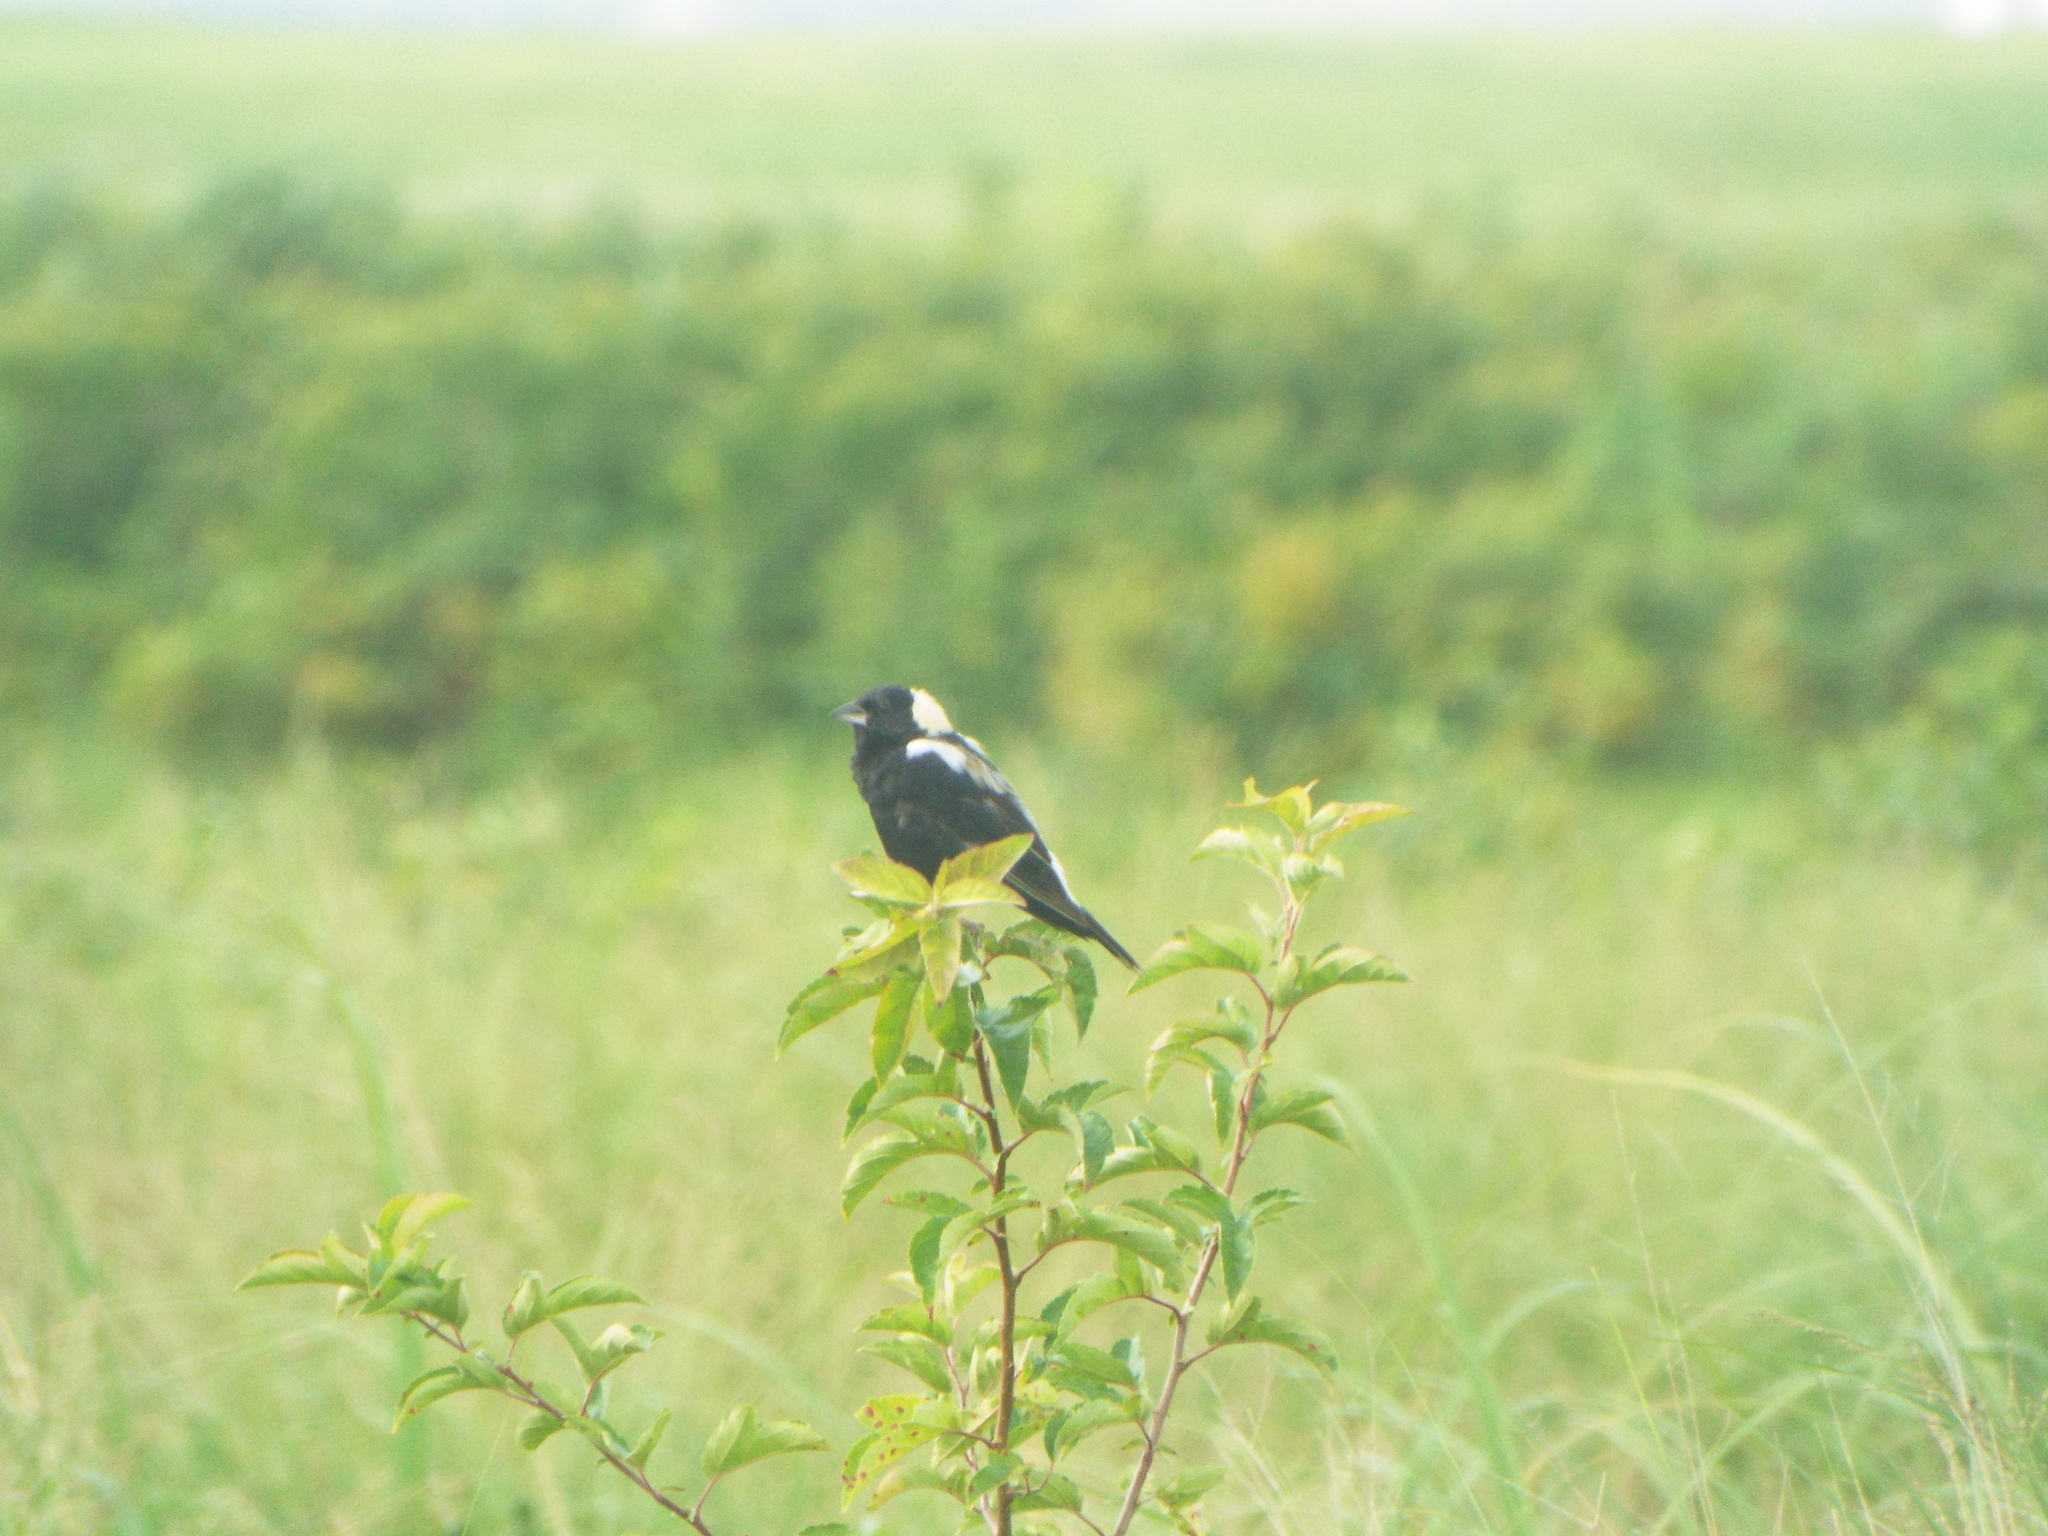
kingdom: Animalia
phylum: Chordata
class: Aves
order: Passeriformes
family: Icteridae
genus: Dolichonyx
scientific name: Dolichonyx oryzivorus
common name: Bobolink
